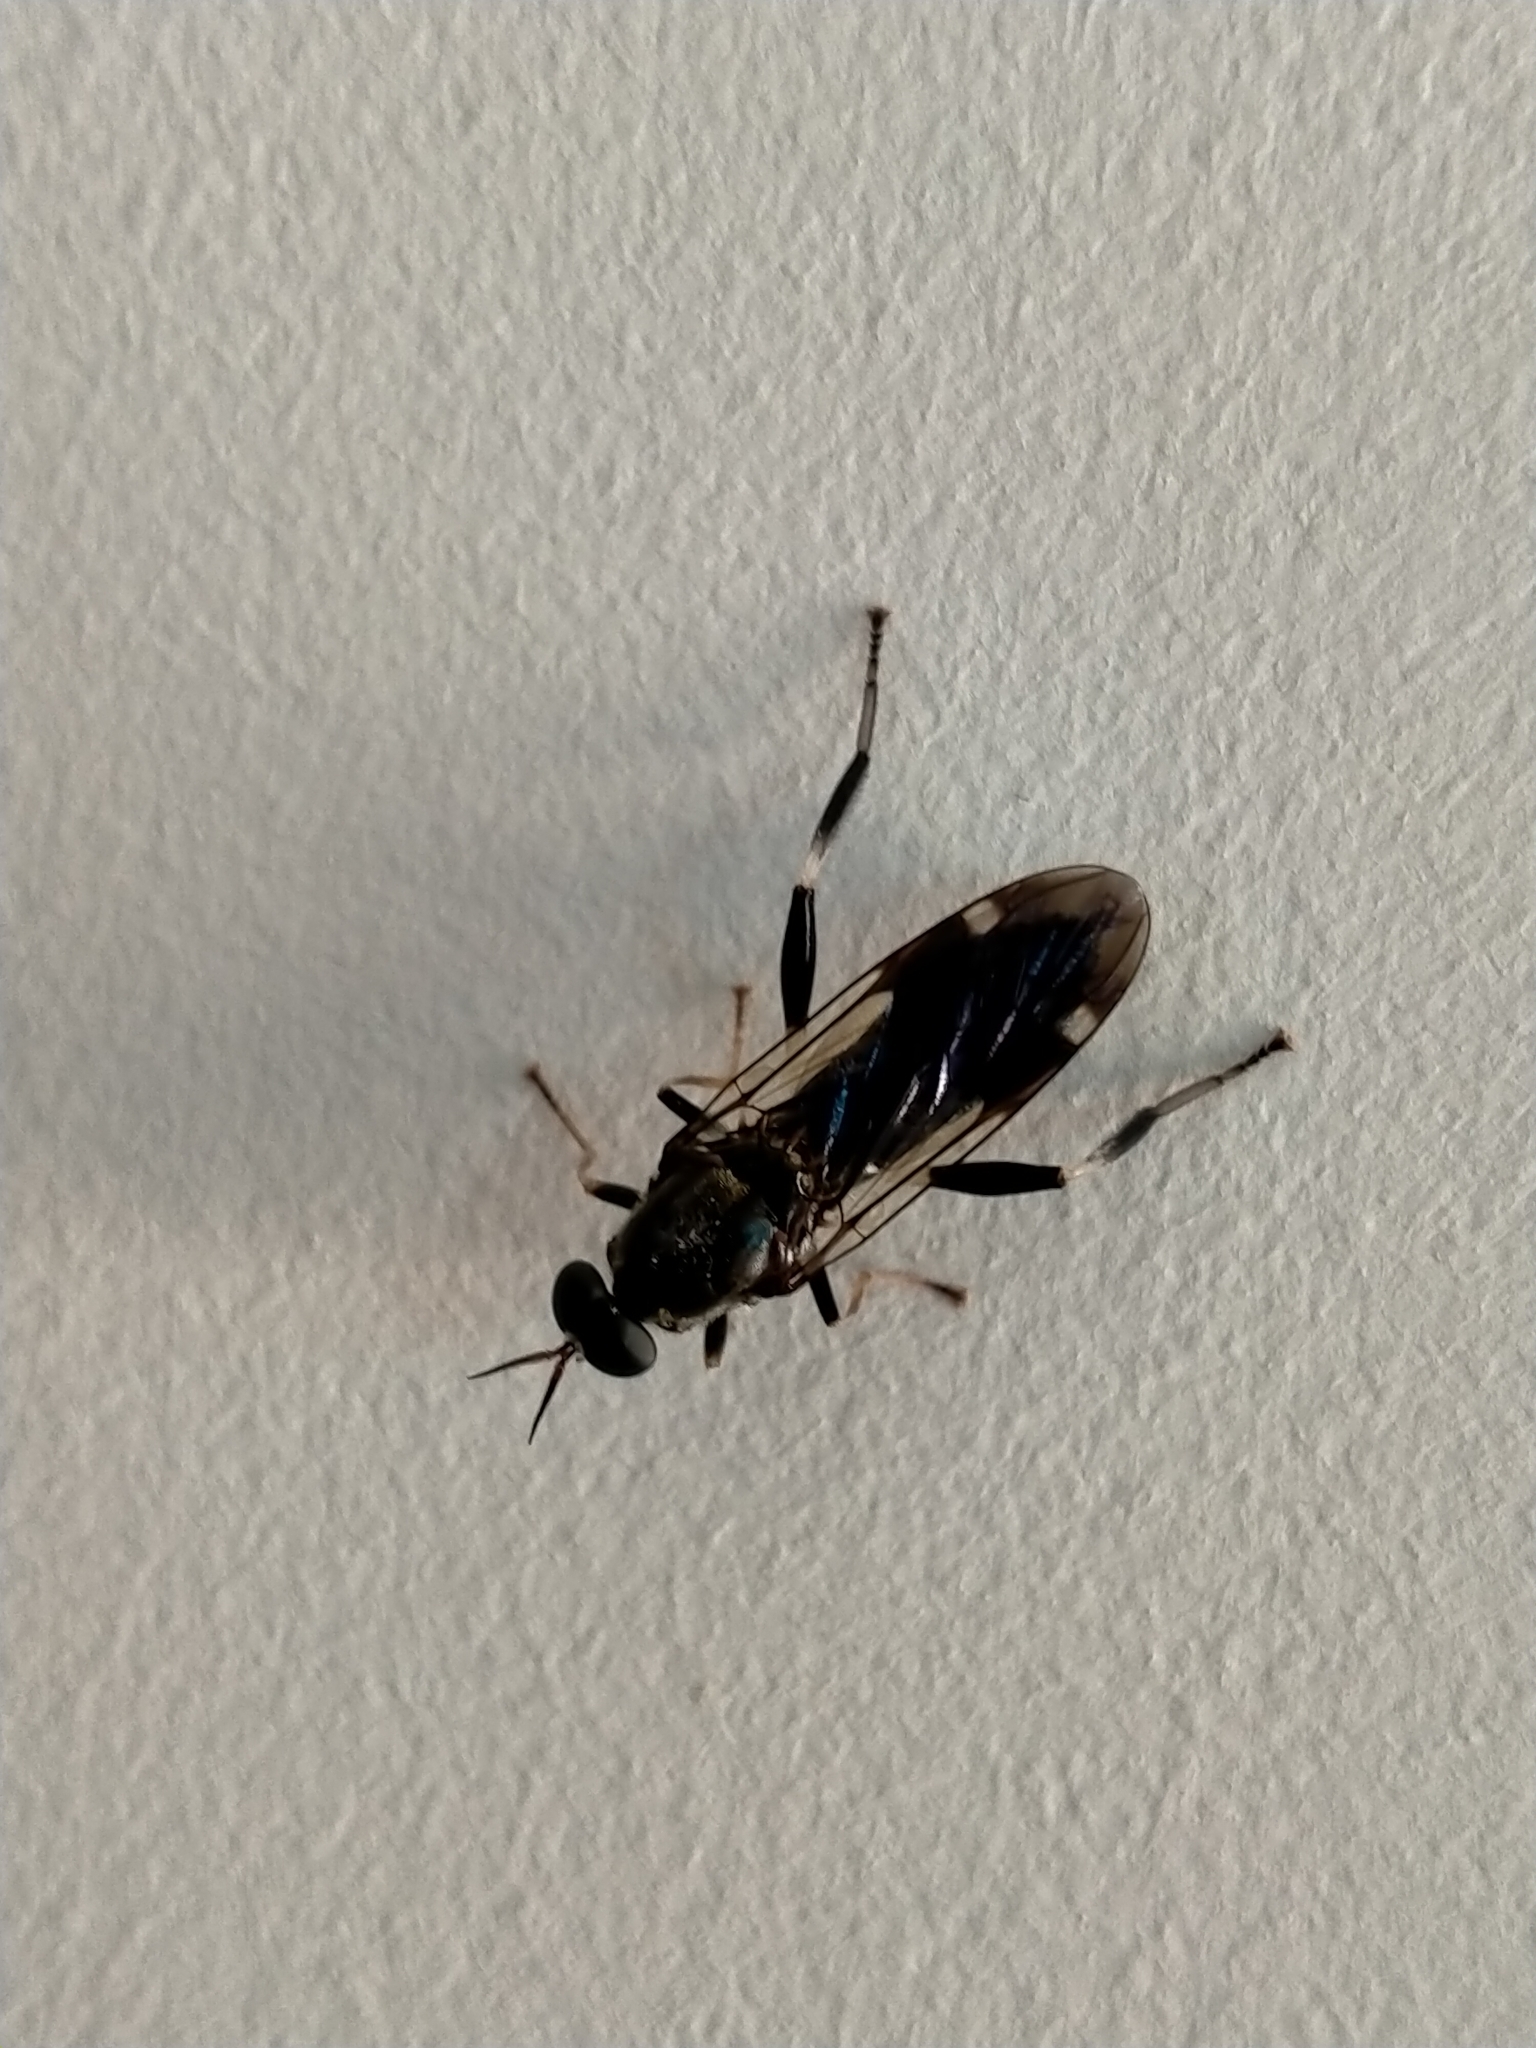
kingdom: Animalia
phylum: Arthropoda
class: Insecta
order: Diptera
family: Stratiomyidae
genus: Exaireta
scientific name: Exaireta spinigera
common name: Blue soldier fly
